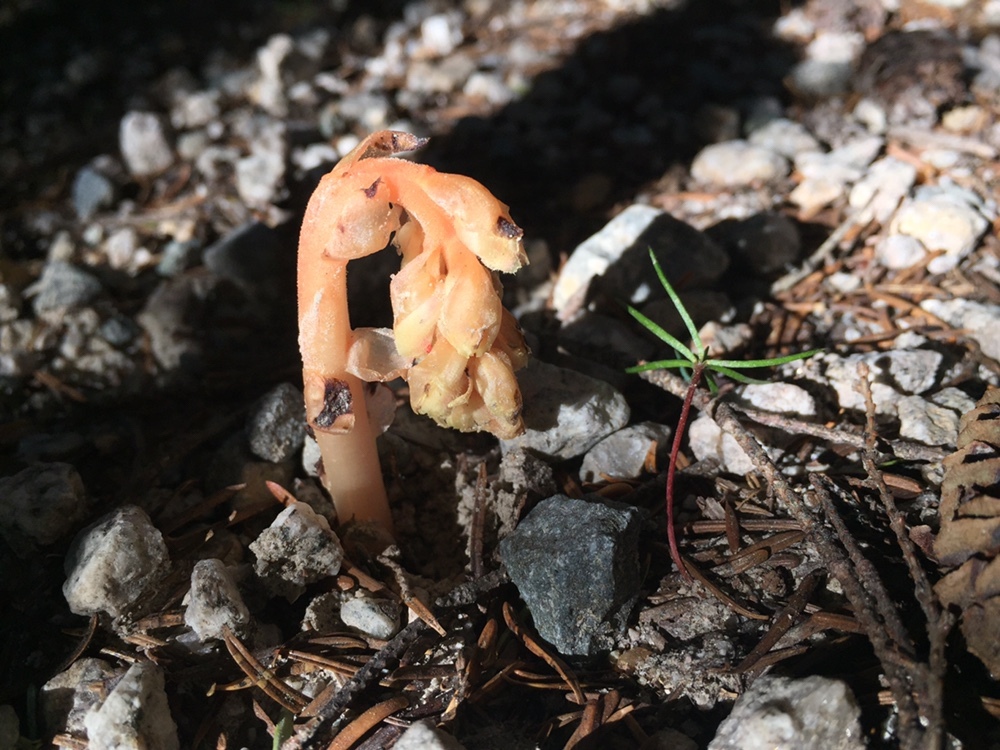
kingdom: Plantae
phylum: Tracheophyta
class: Magnoliopsida
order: Ericales
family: Ericaceae
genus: Hypopitys
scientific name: Hypopitys monotropa
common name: Yellow bird's-nest
